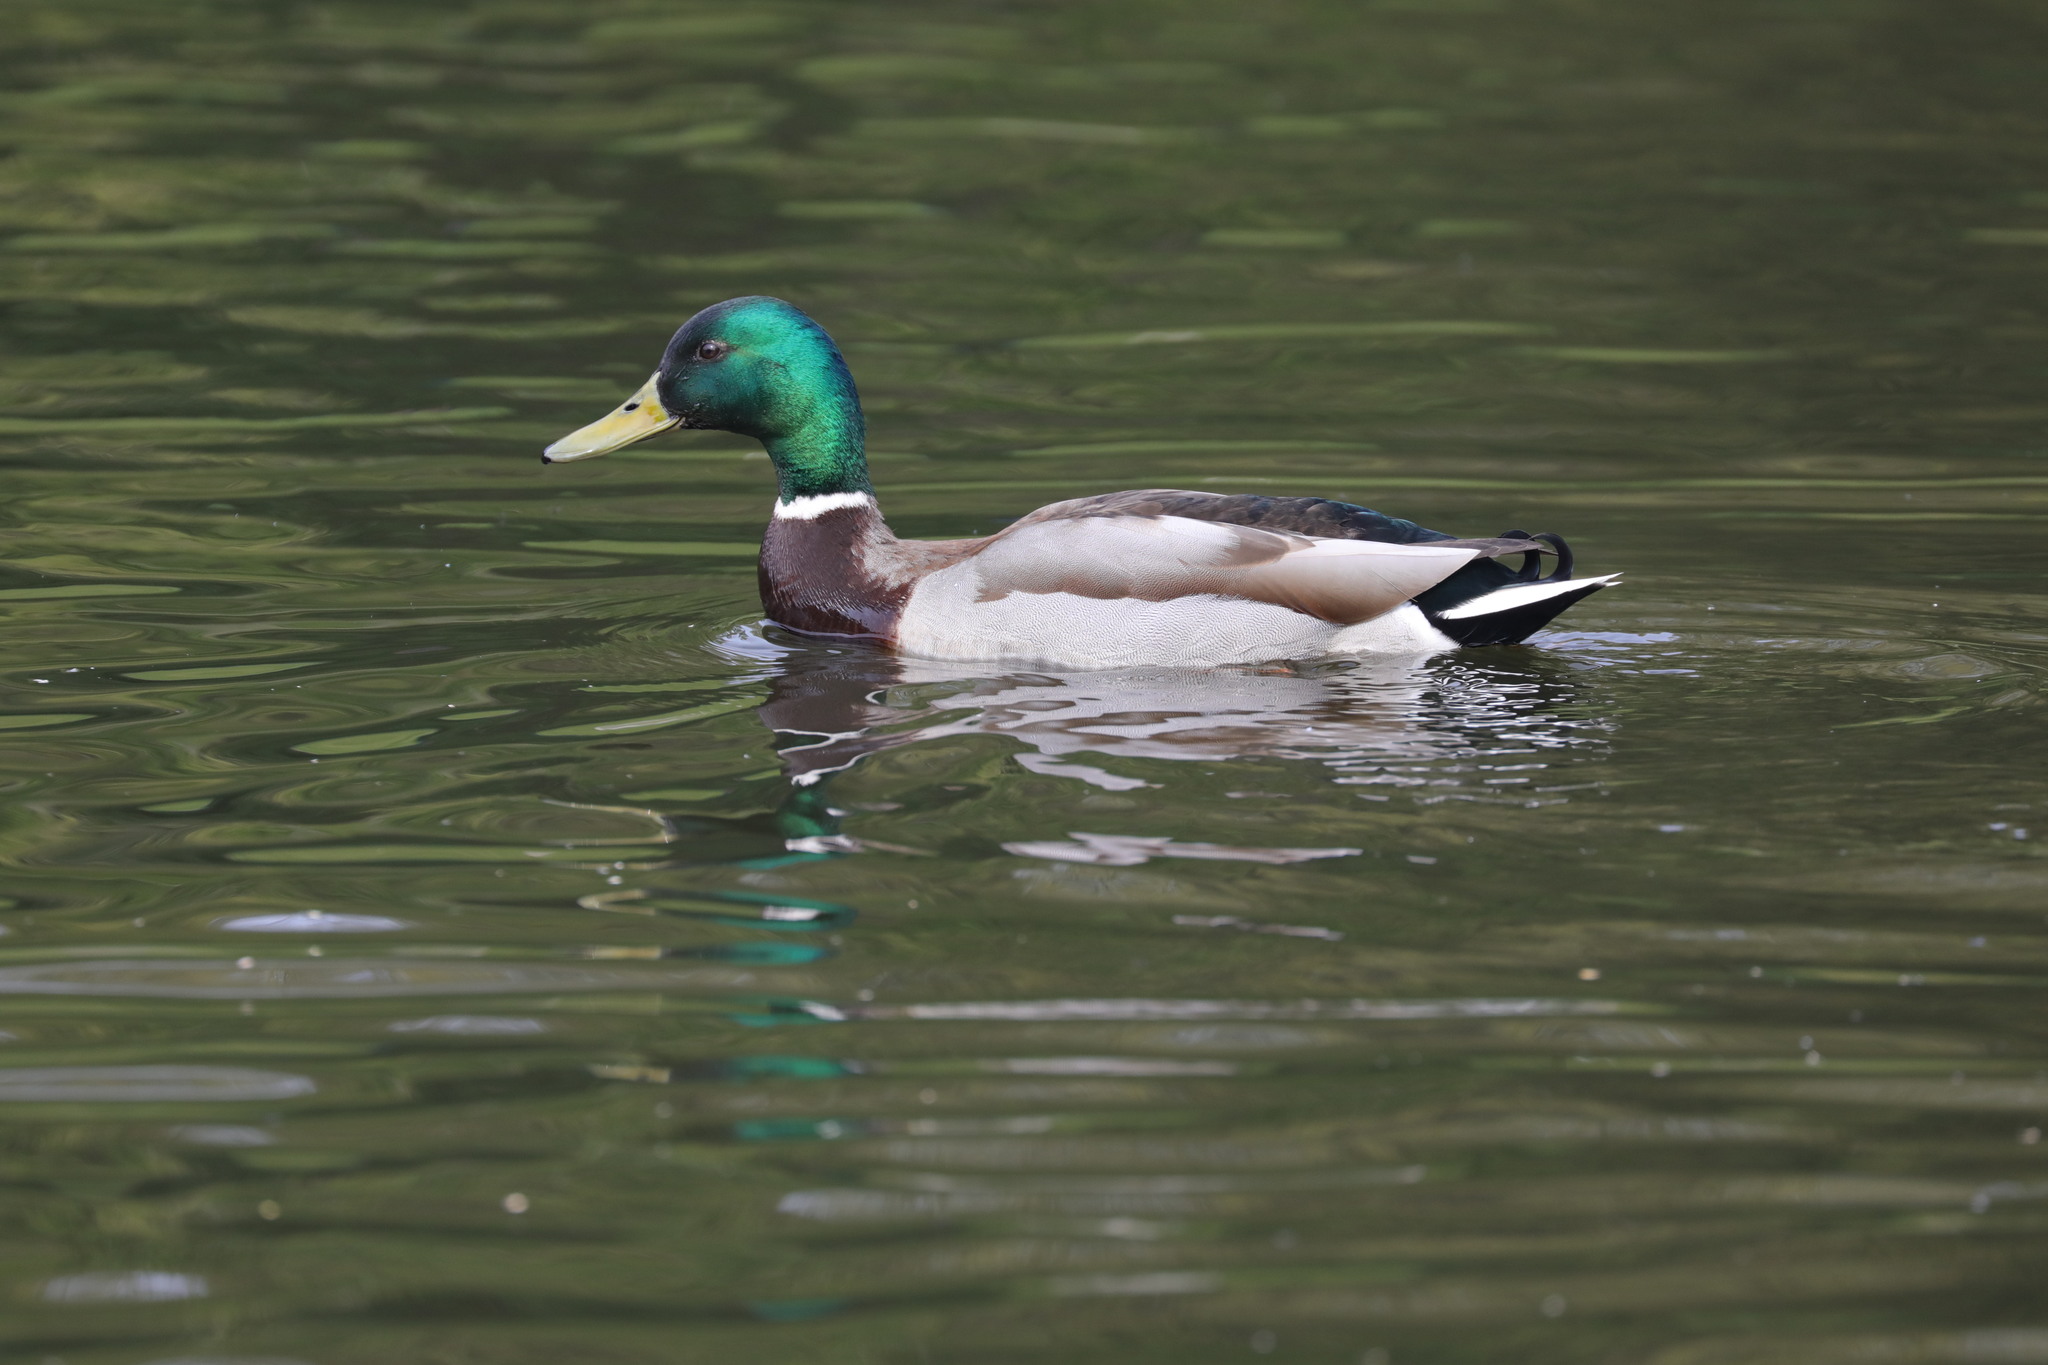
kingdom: Animalia
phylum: Chordata
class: Aves
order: Anseriformes
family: Anatidae
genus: Anas
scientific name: Anas platyrhynchos
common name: Mallard
